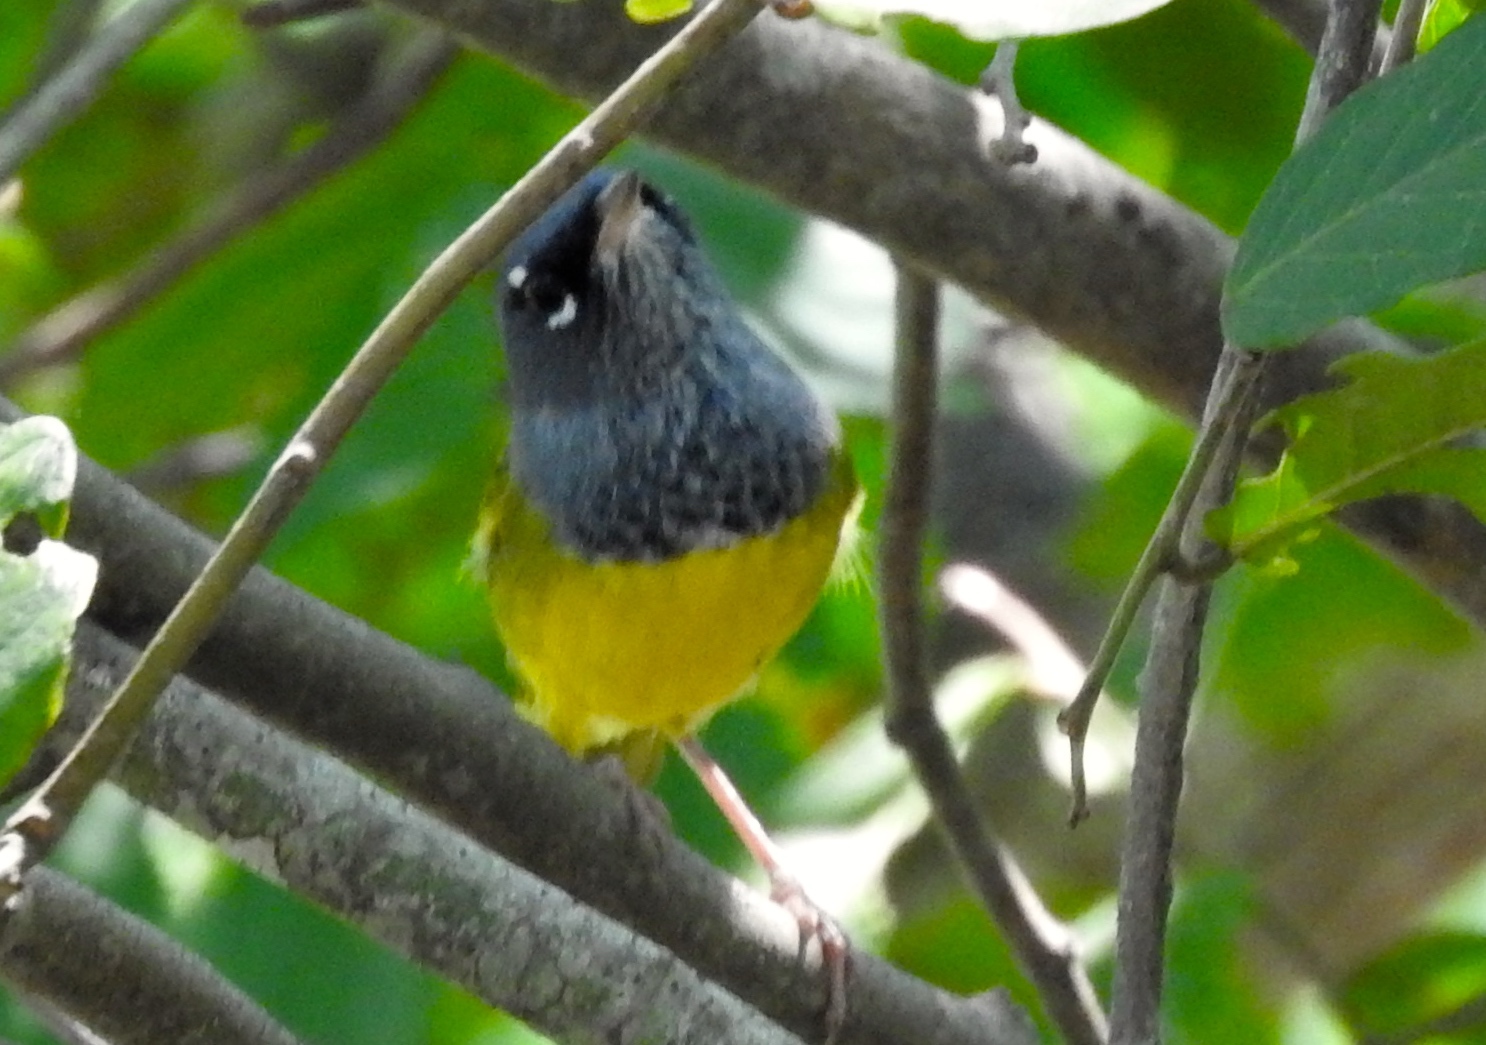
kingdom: Animalia
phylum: Chordata
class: Aves
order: Passeriformes
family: Parulidae
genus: Geothlypis
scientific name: Geothlypis tolmiei
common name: Macgillivray's warbler
